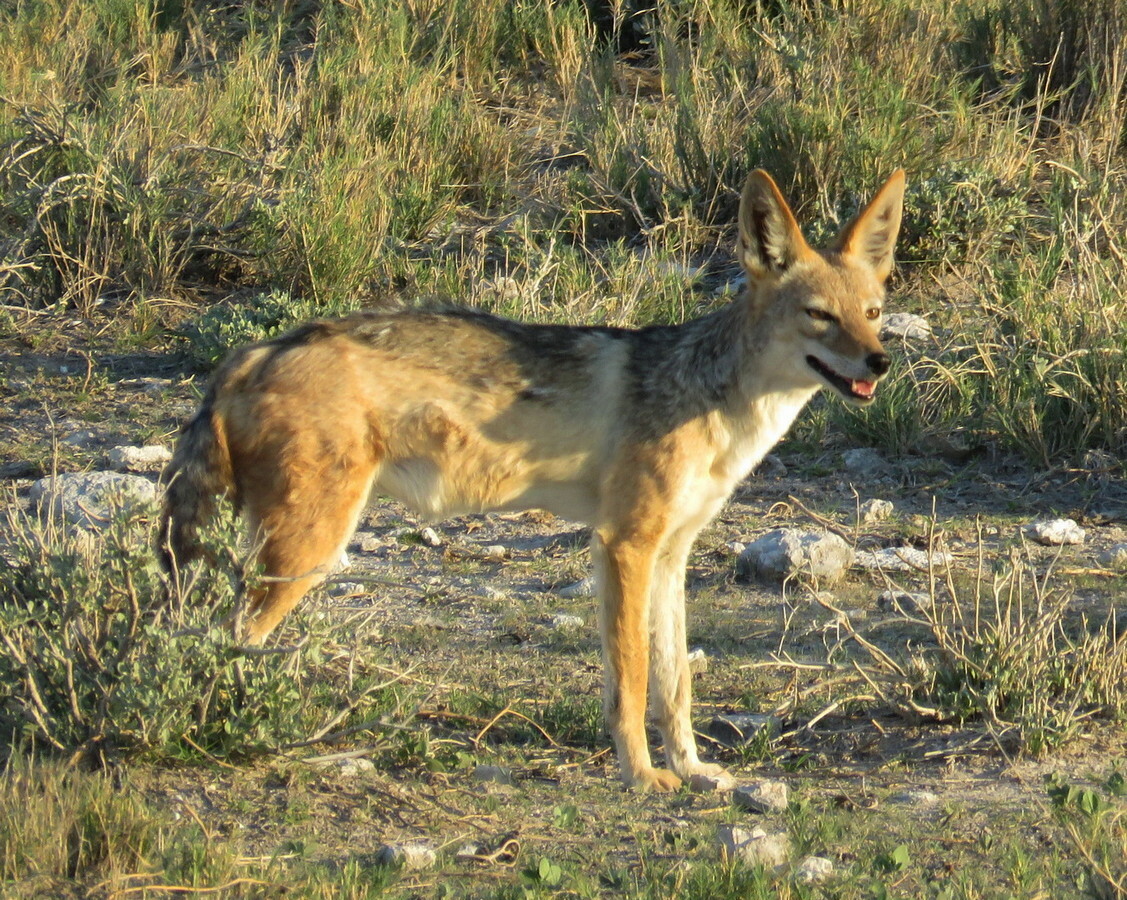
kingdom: Animalia
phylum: Chordata
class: Mammalia
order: Carnivora
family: Canidae
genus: Lupulella
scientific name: Lupulella
